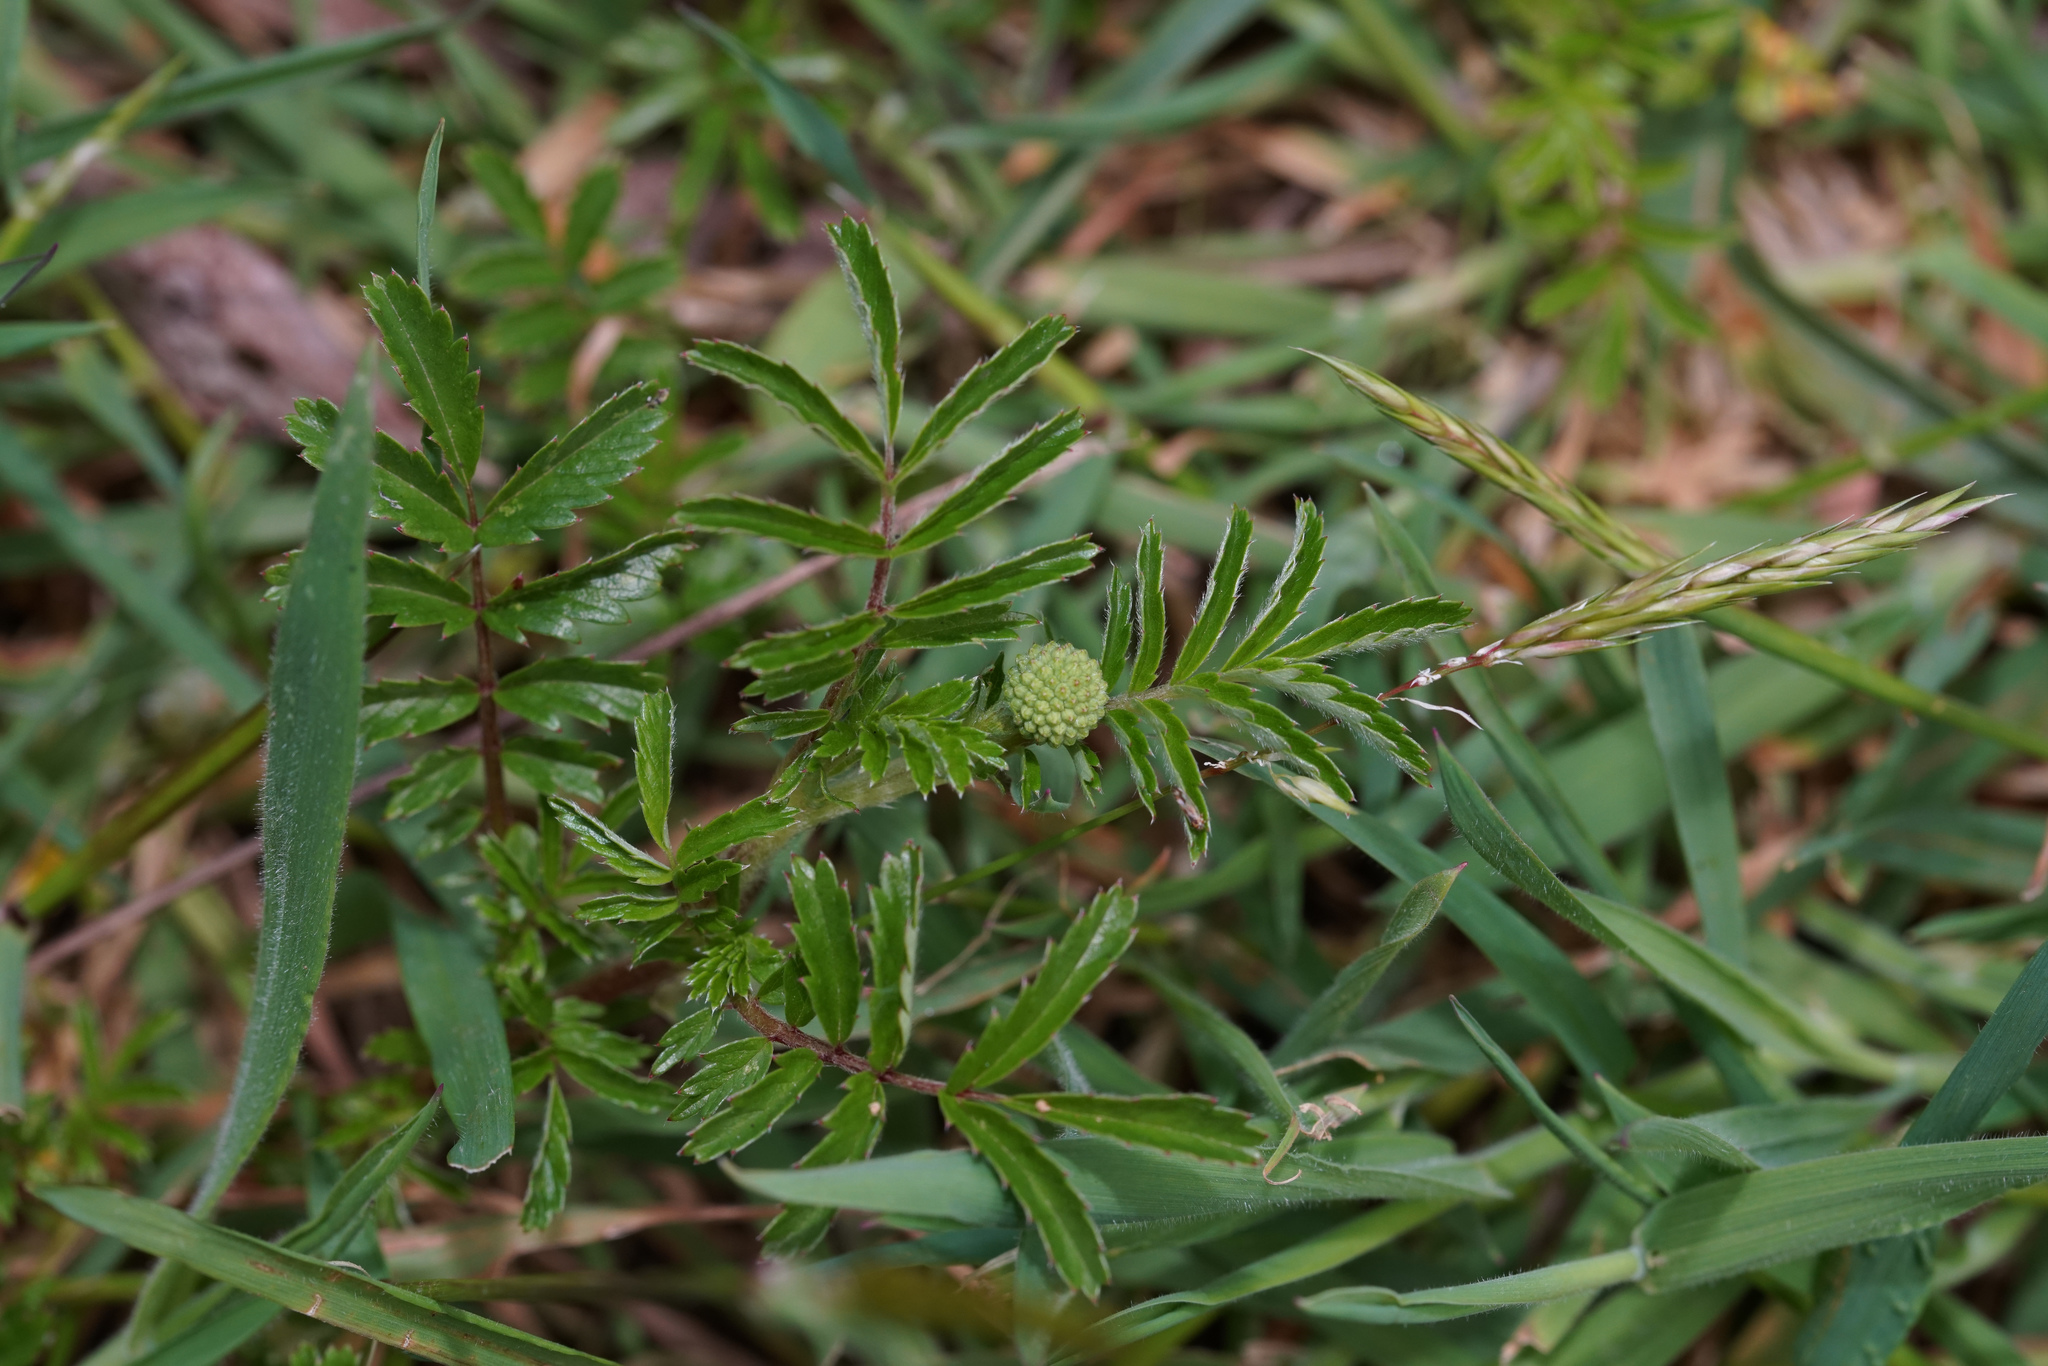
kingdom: Plantae
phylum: Tracheophyta
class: Magnoliopsida
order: Rosales
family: Rosaceae
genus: Acaena
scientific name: Acaena novae-zelandiae
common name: Pirri-pirri-bur
